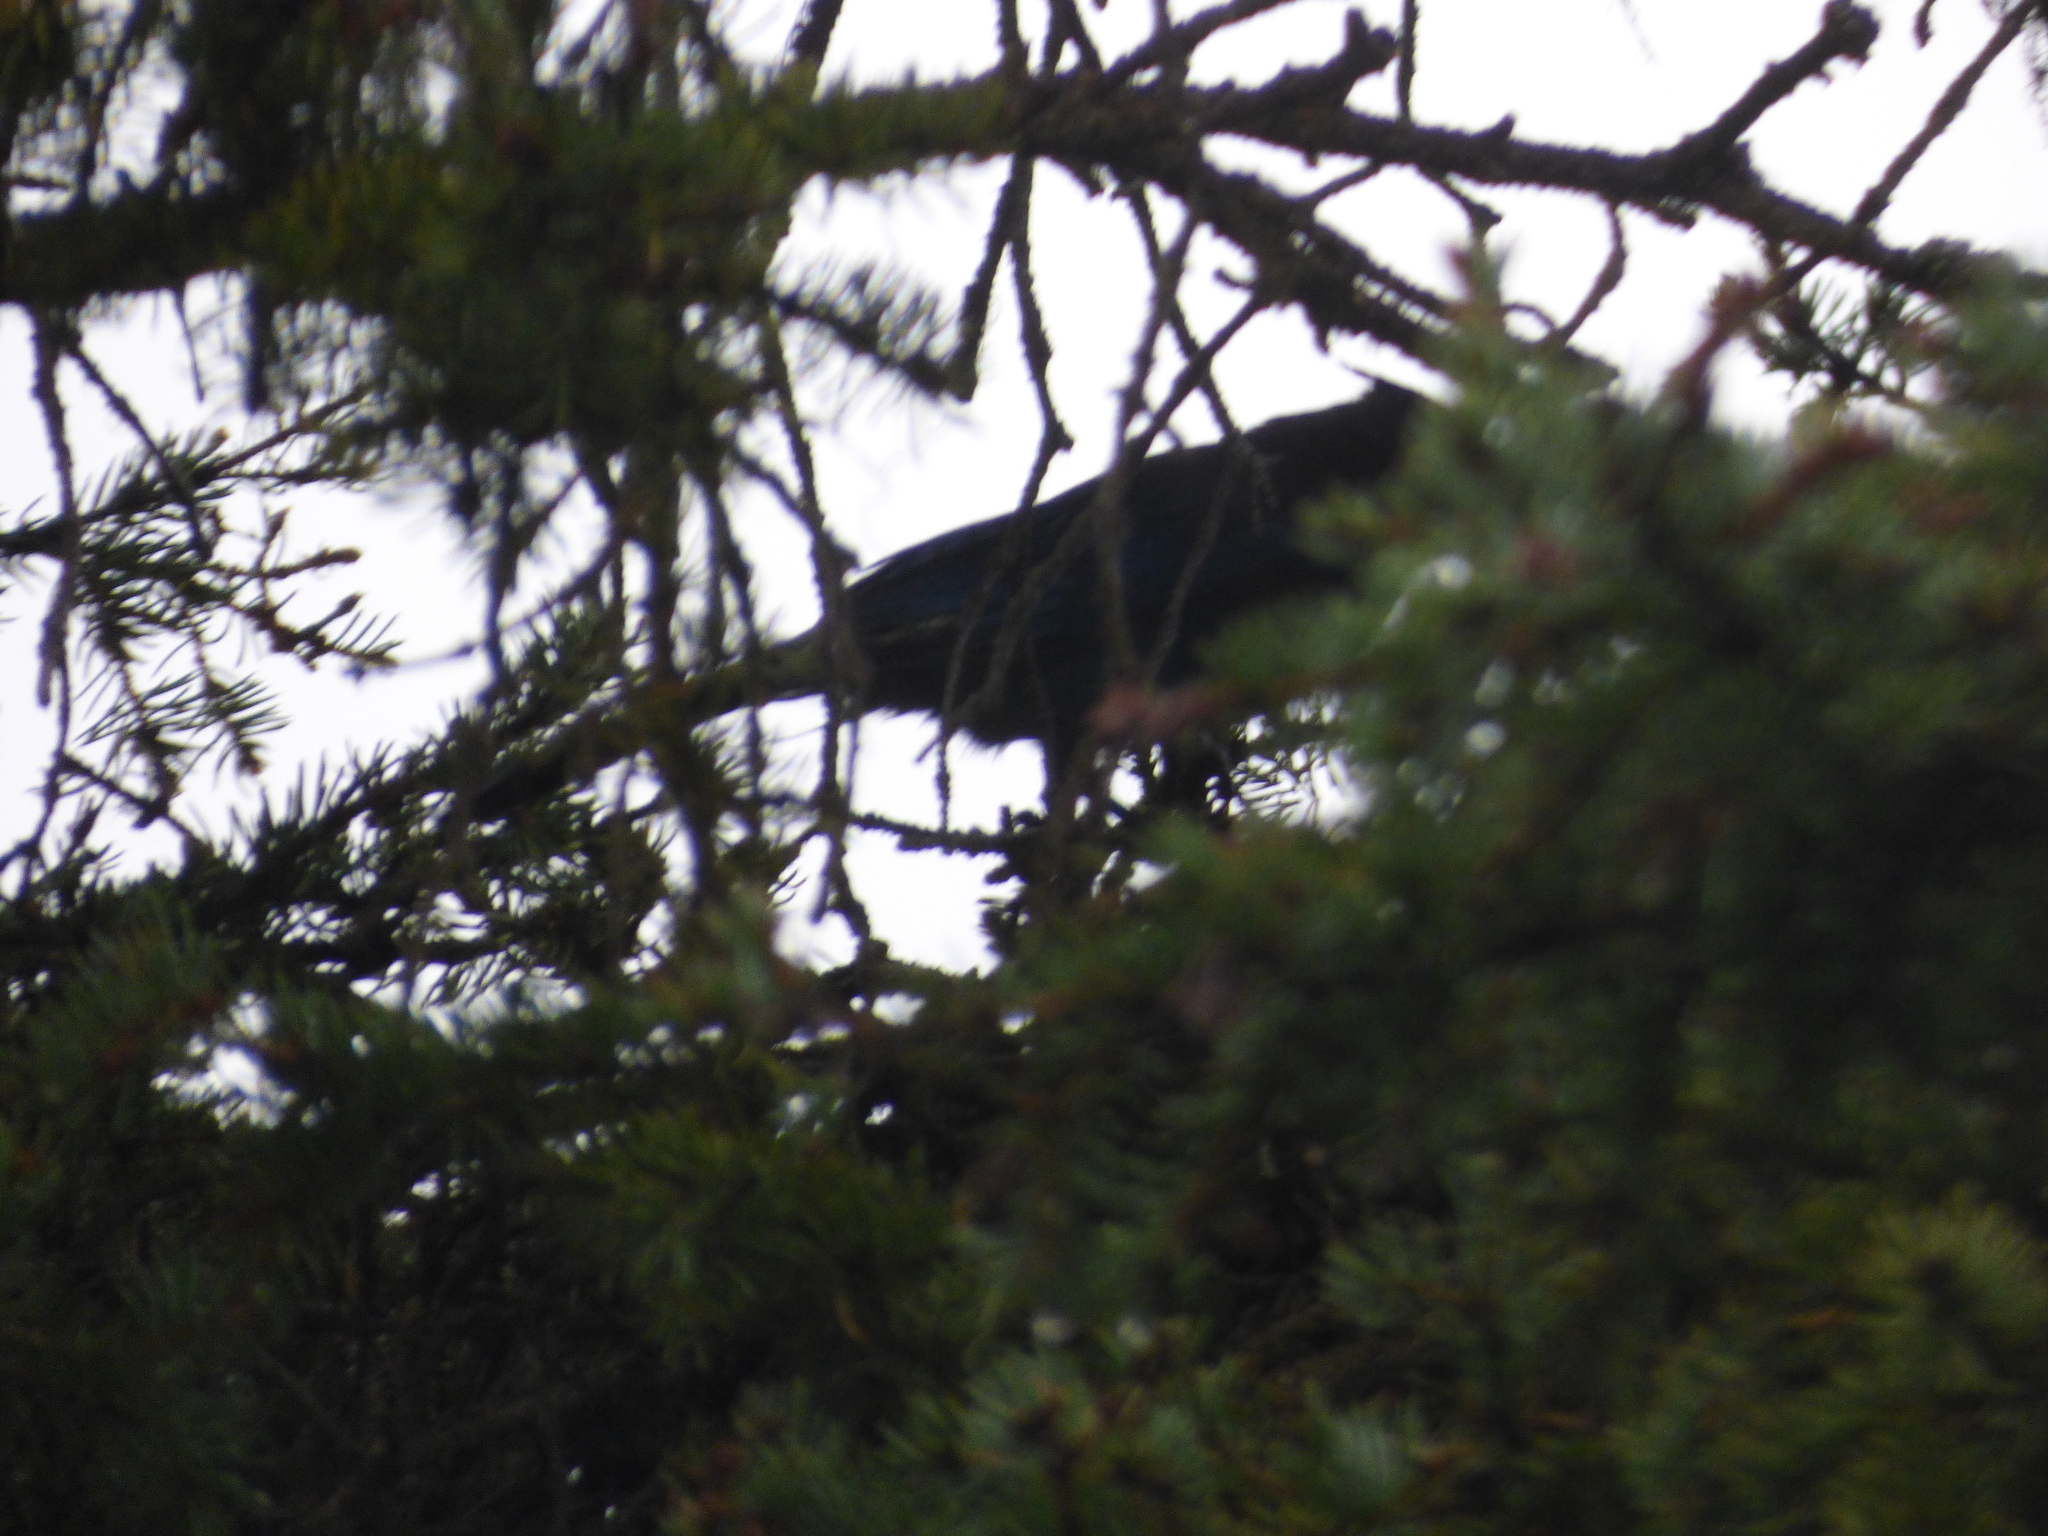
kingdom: Animalia
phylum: Chordata
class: Aves
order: Passeriformes
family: Corvidae
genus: Cyanocitta
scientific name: Cyanocitta stelleri
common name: Steller's jay
